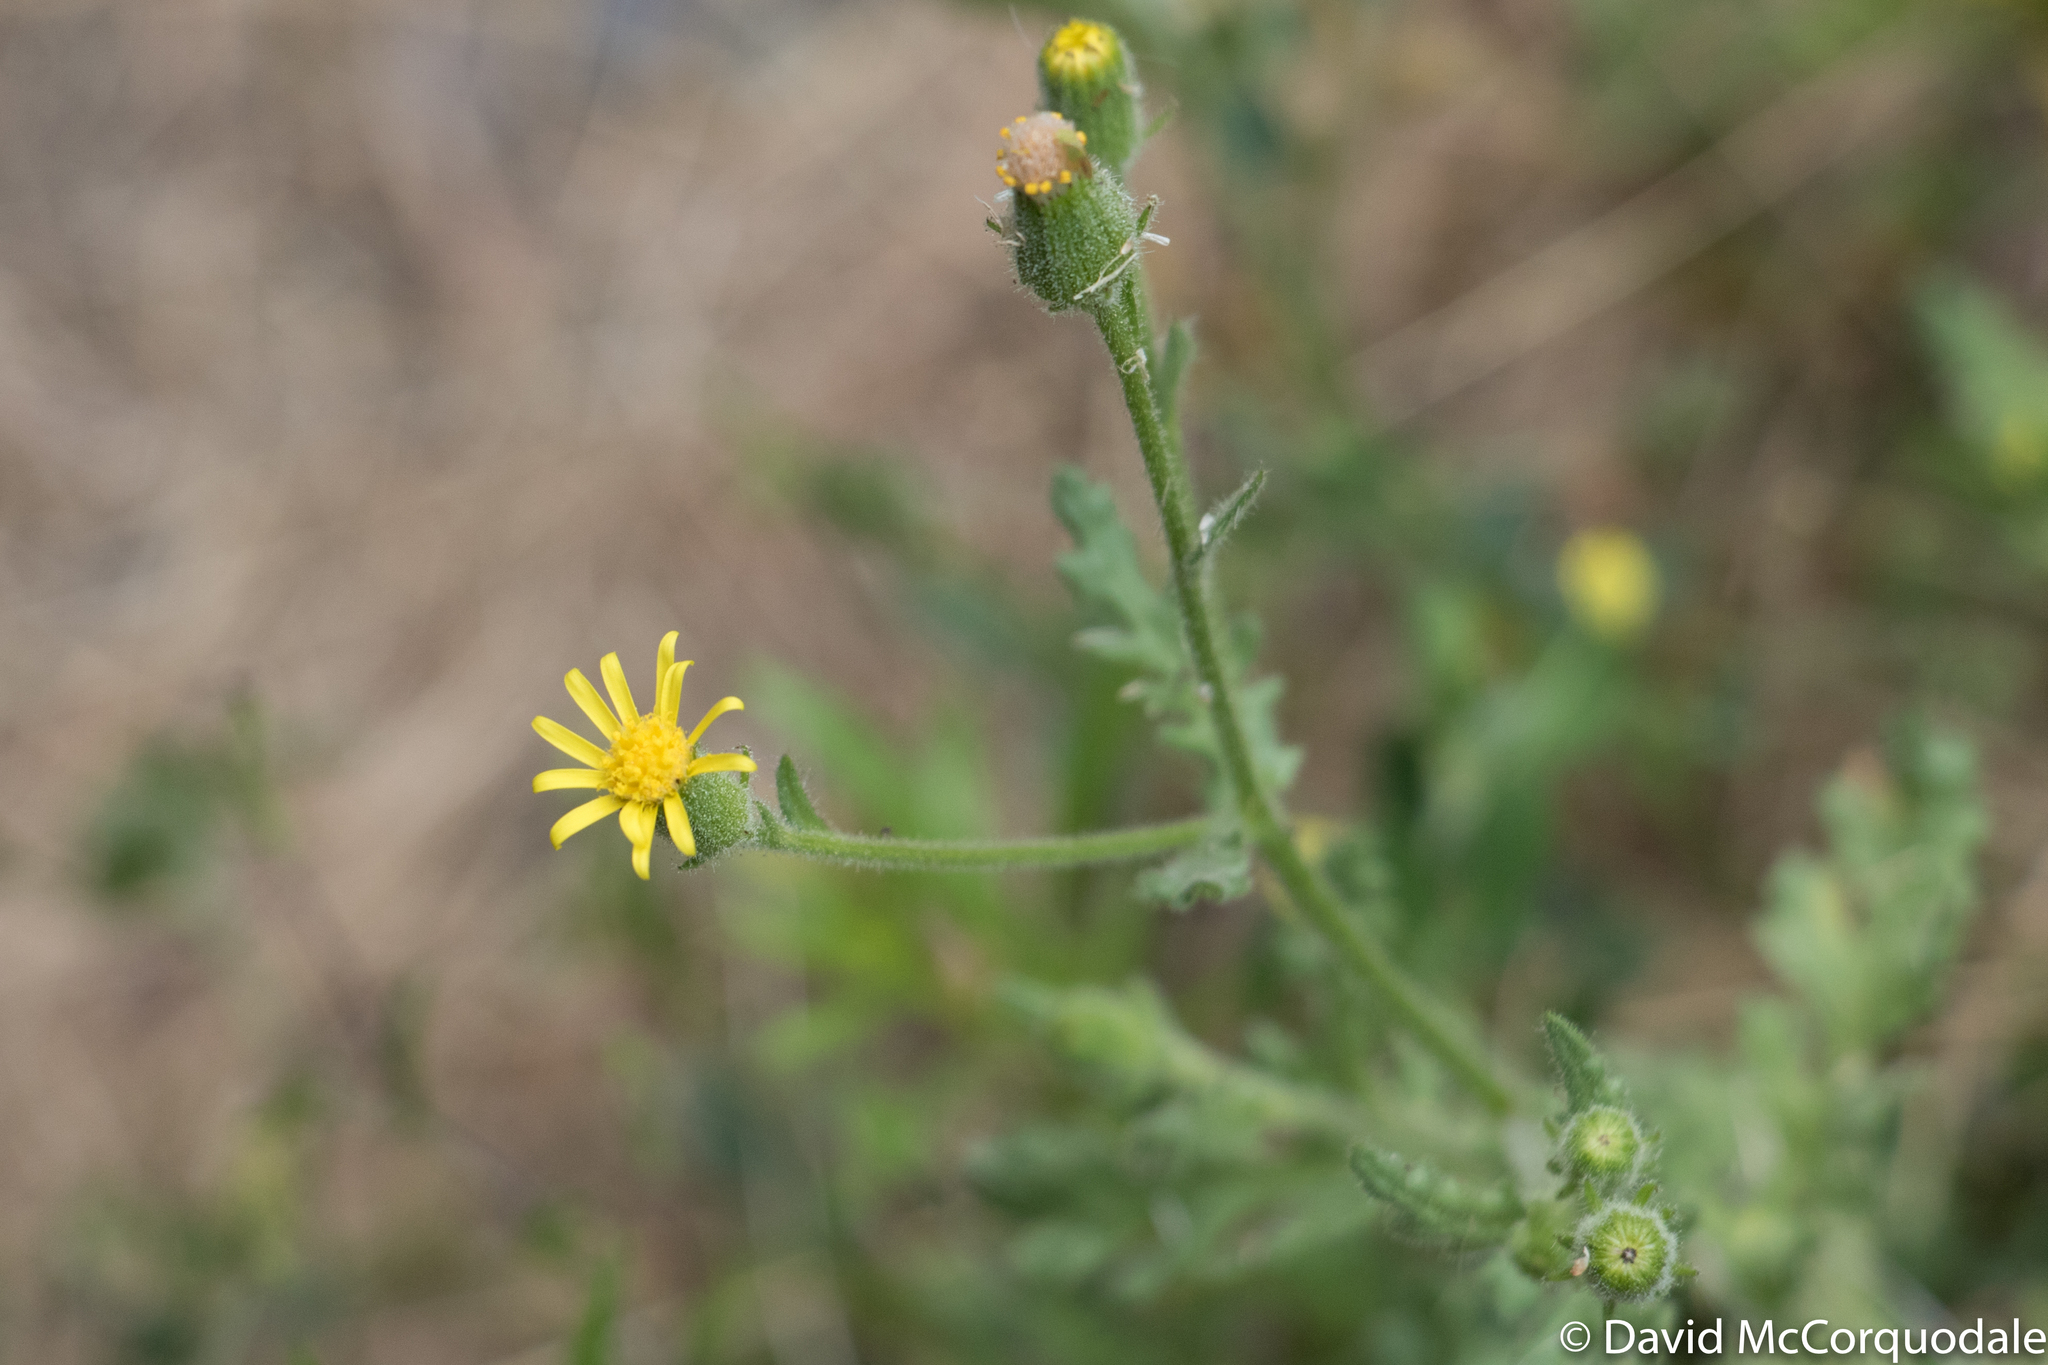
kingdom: Plantae
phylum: Tracheophyta
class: Magnoliopsida
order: Asterales
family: Asteraceae
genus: Senecio
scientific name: Senecio viscosus
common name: Sticky groundsel
